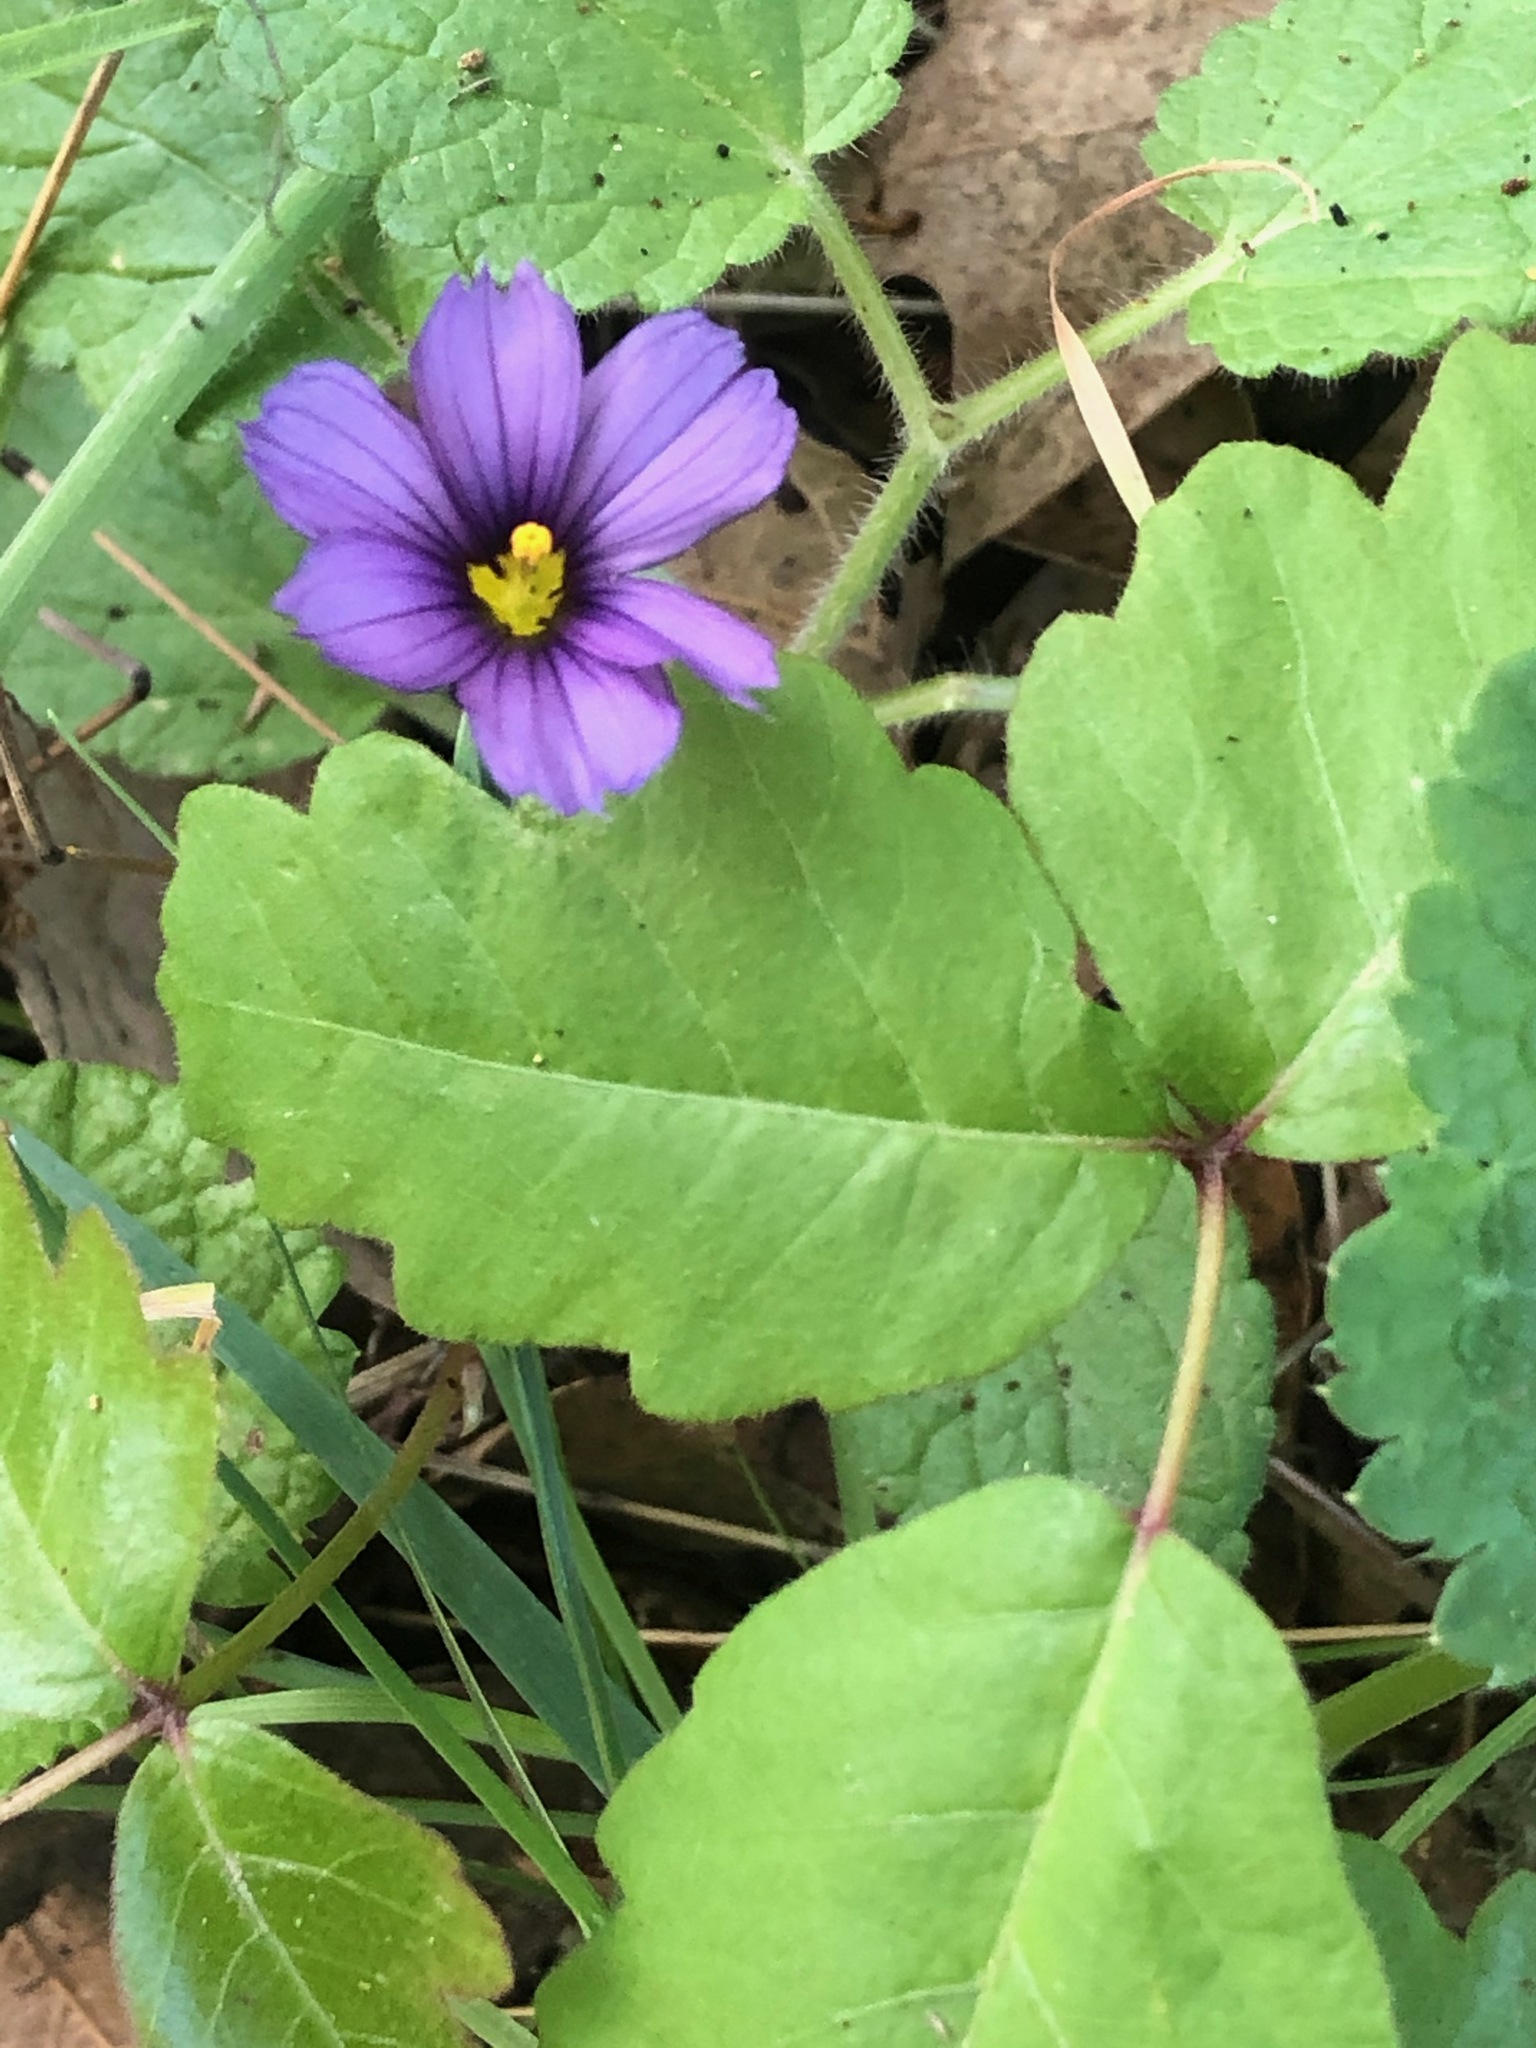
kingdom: Plantae
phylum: Tracheophyta
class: Liliopsida
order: Asparagales
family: Iridaceae
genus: Sisyrinchium
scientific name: Sisyrinchium bellum
